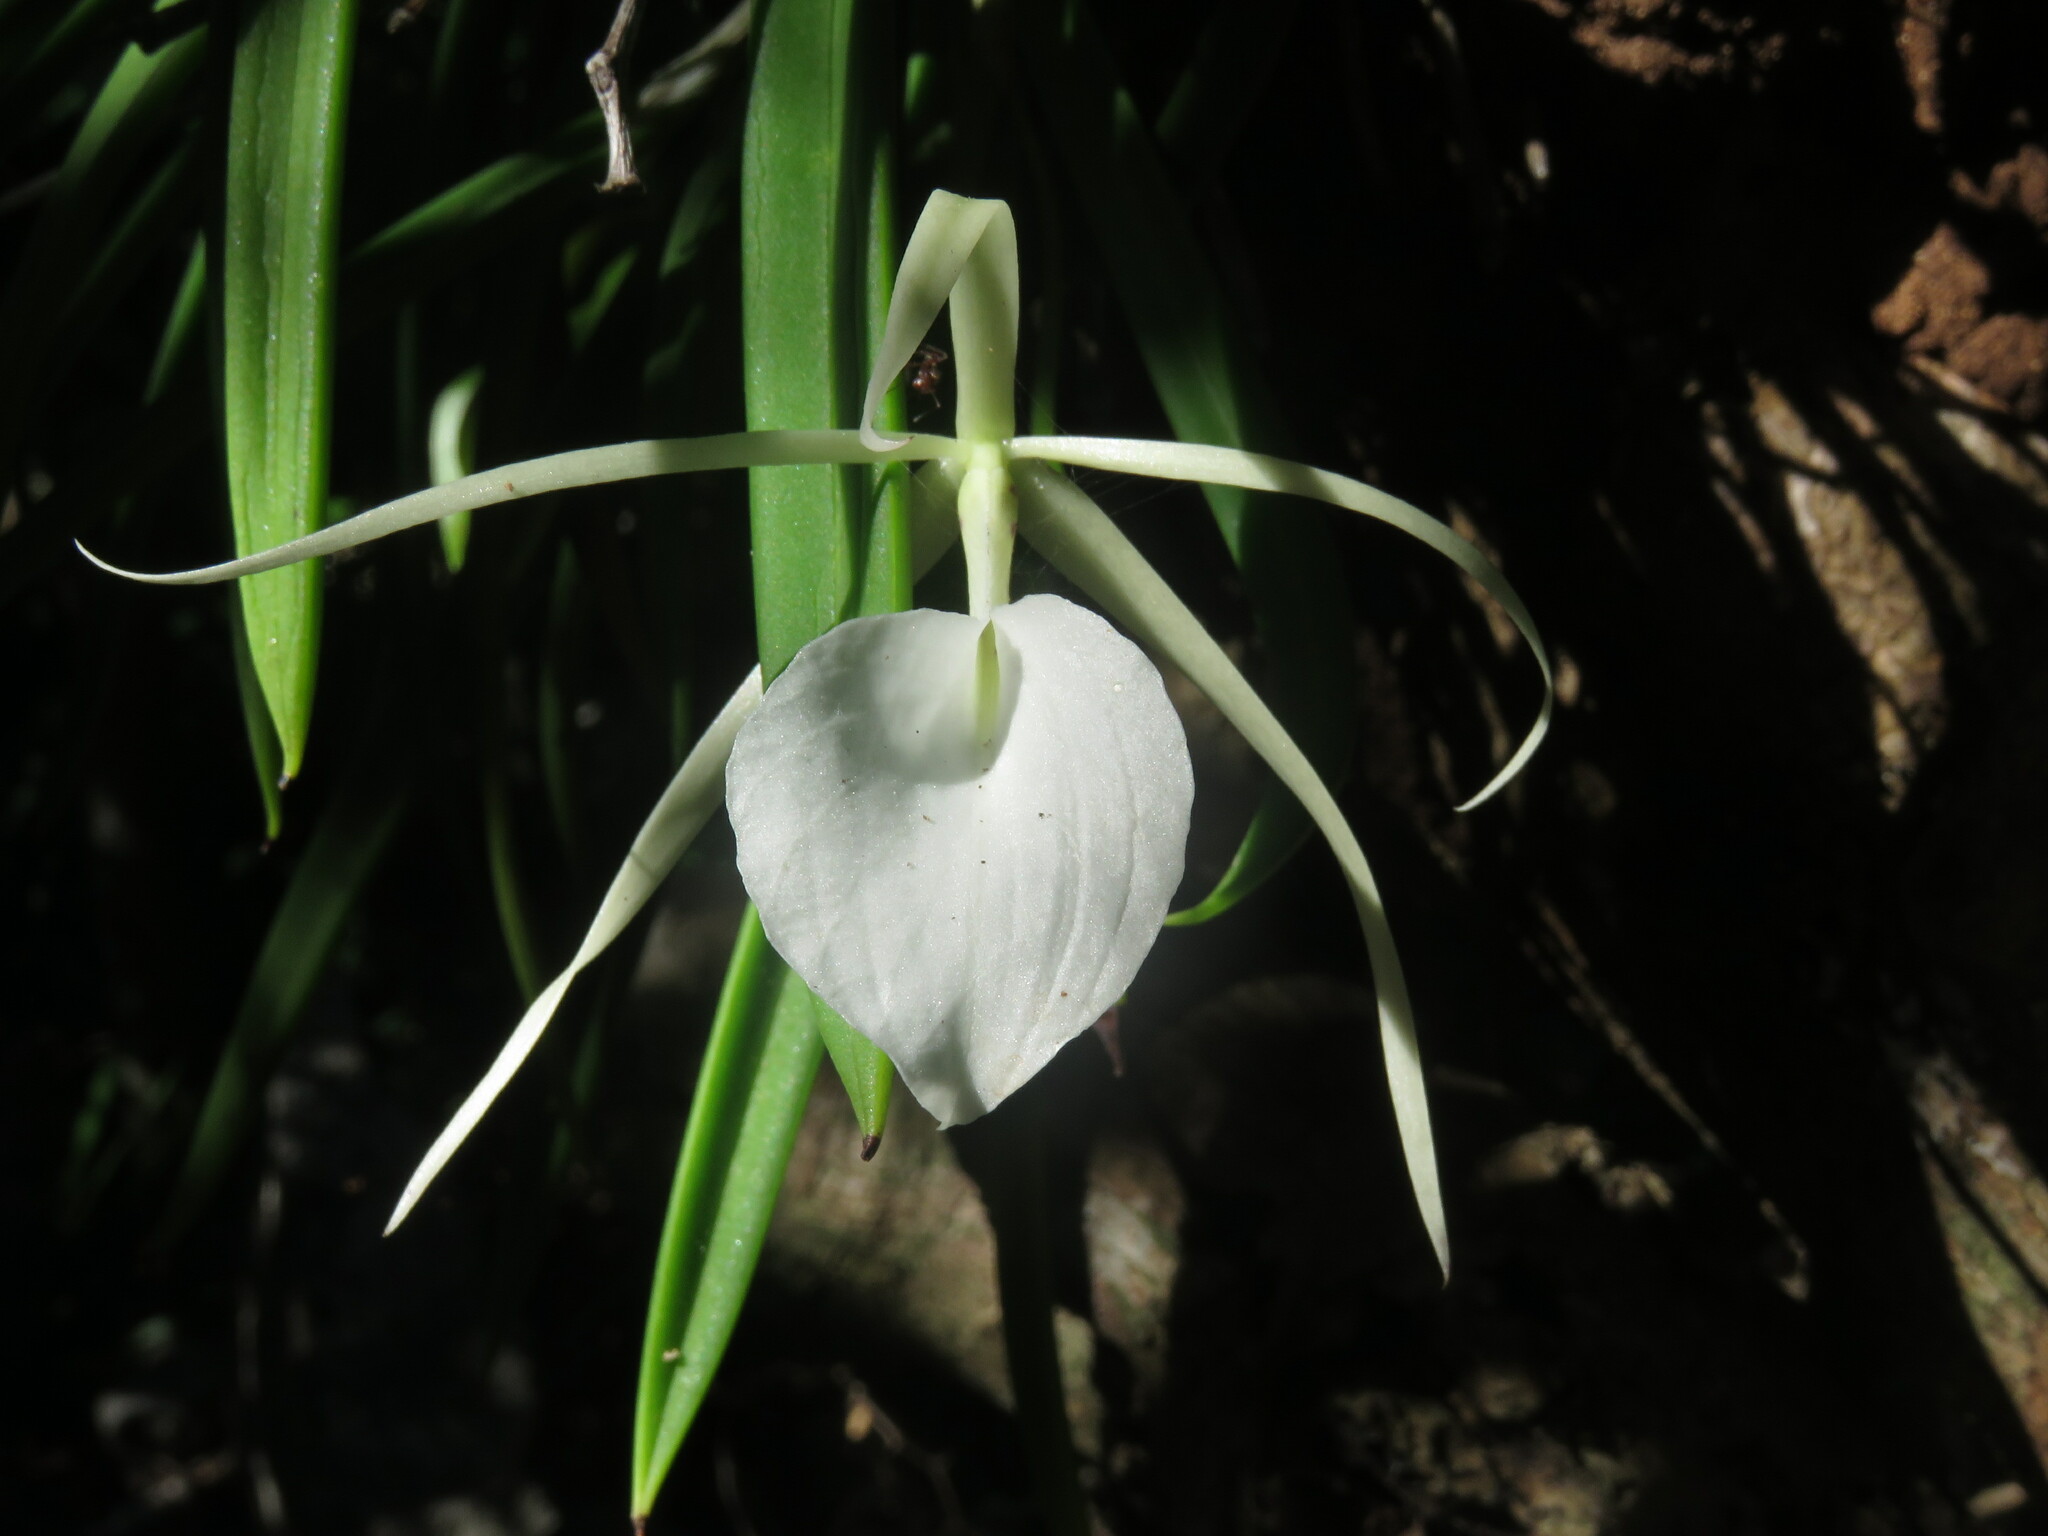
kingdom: Plantae
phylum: Tracheophyta
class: Liliopsida
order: Asparagales
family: Orchidaceae
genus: Brassavola
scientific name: Brassavola nodosa
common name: Lady of the night
